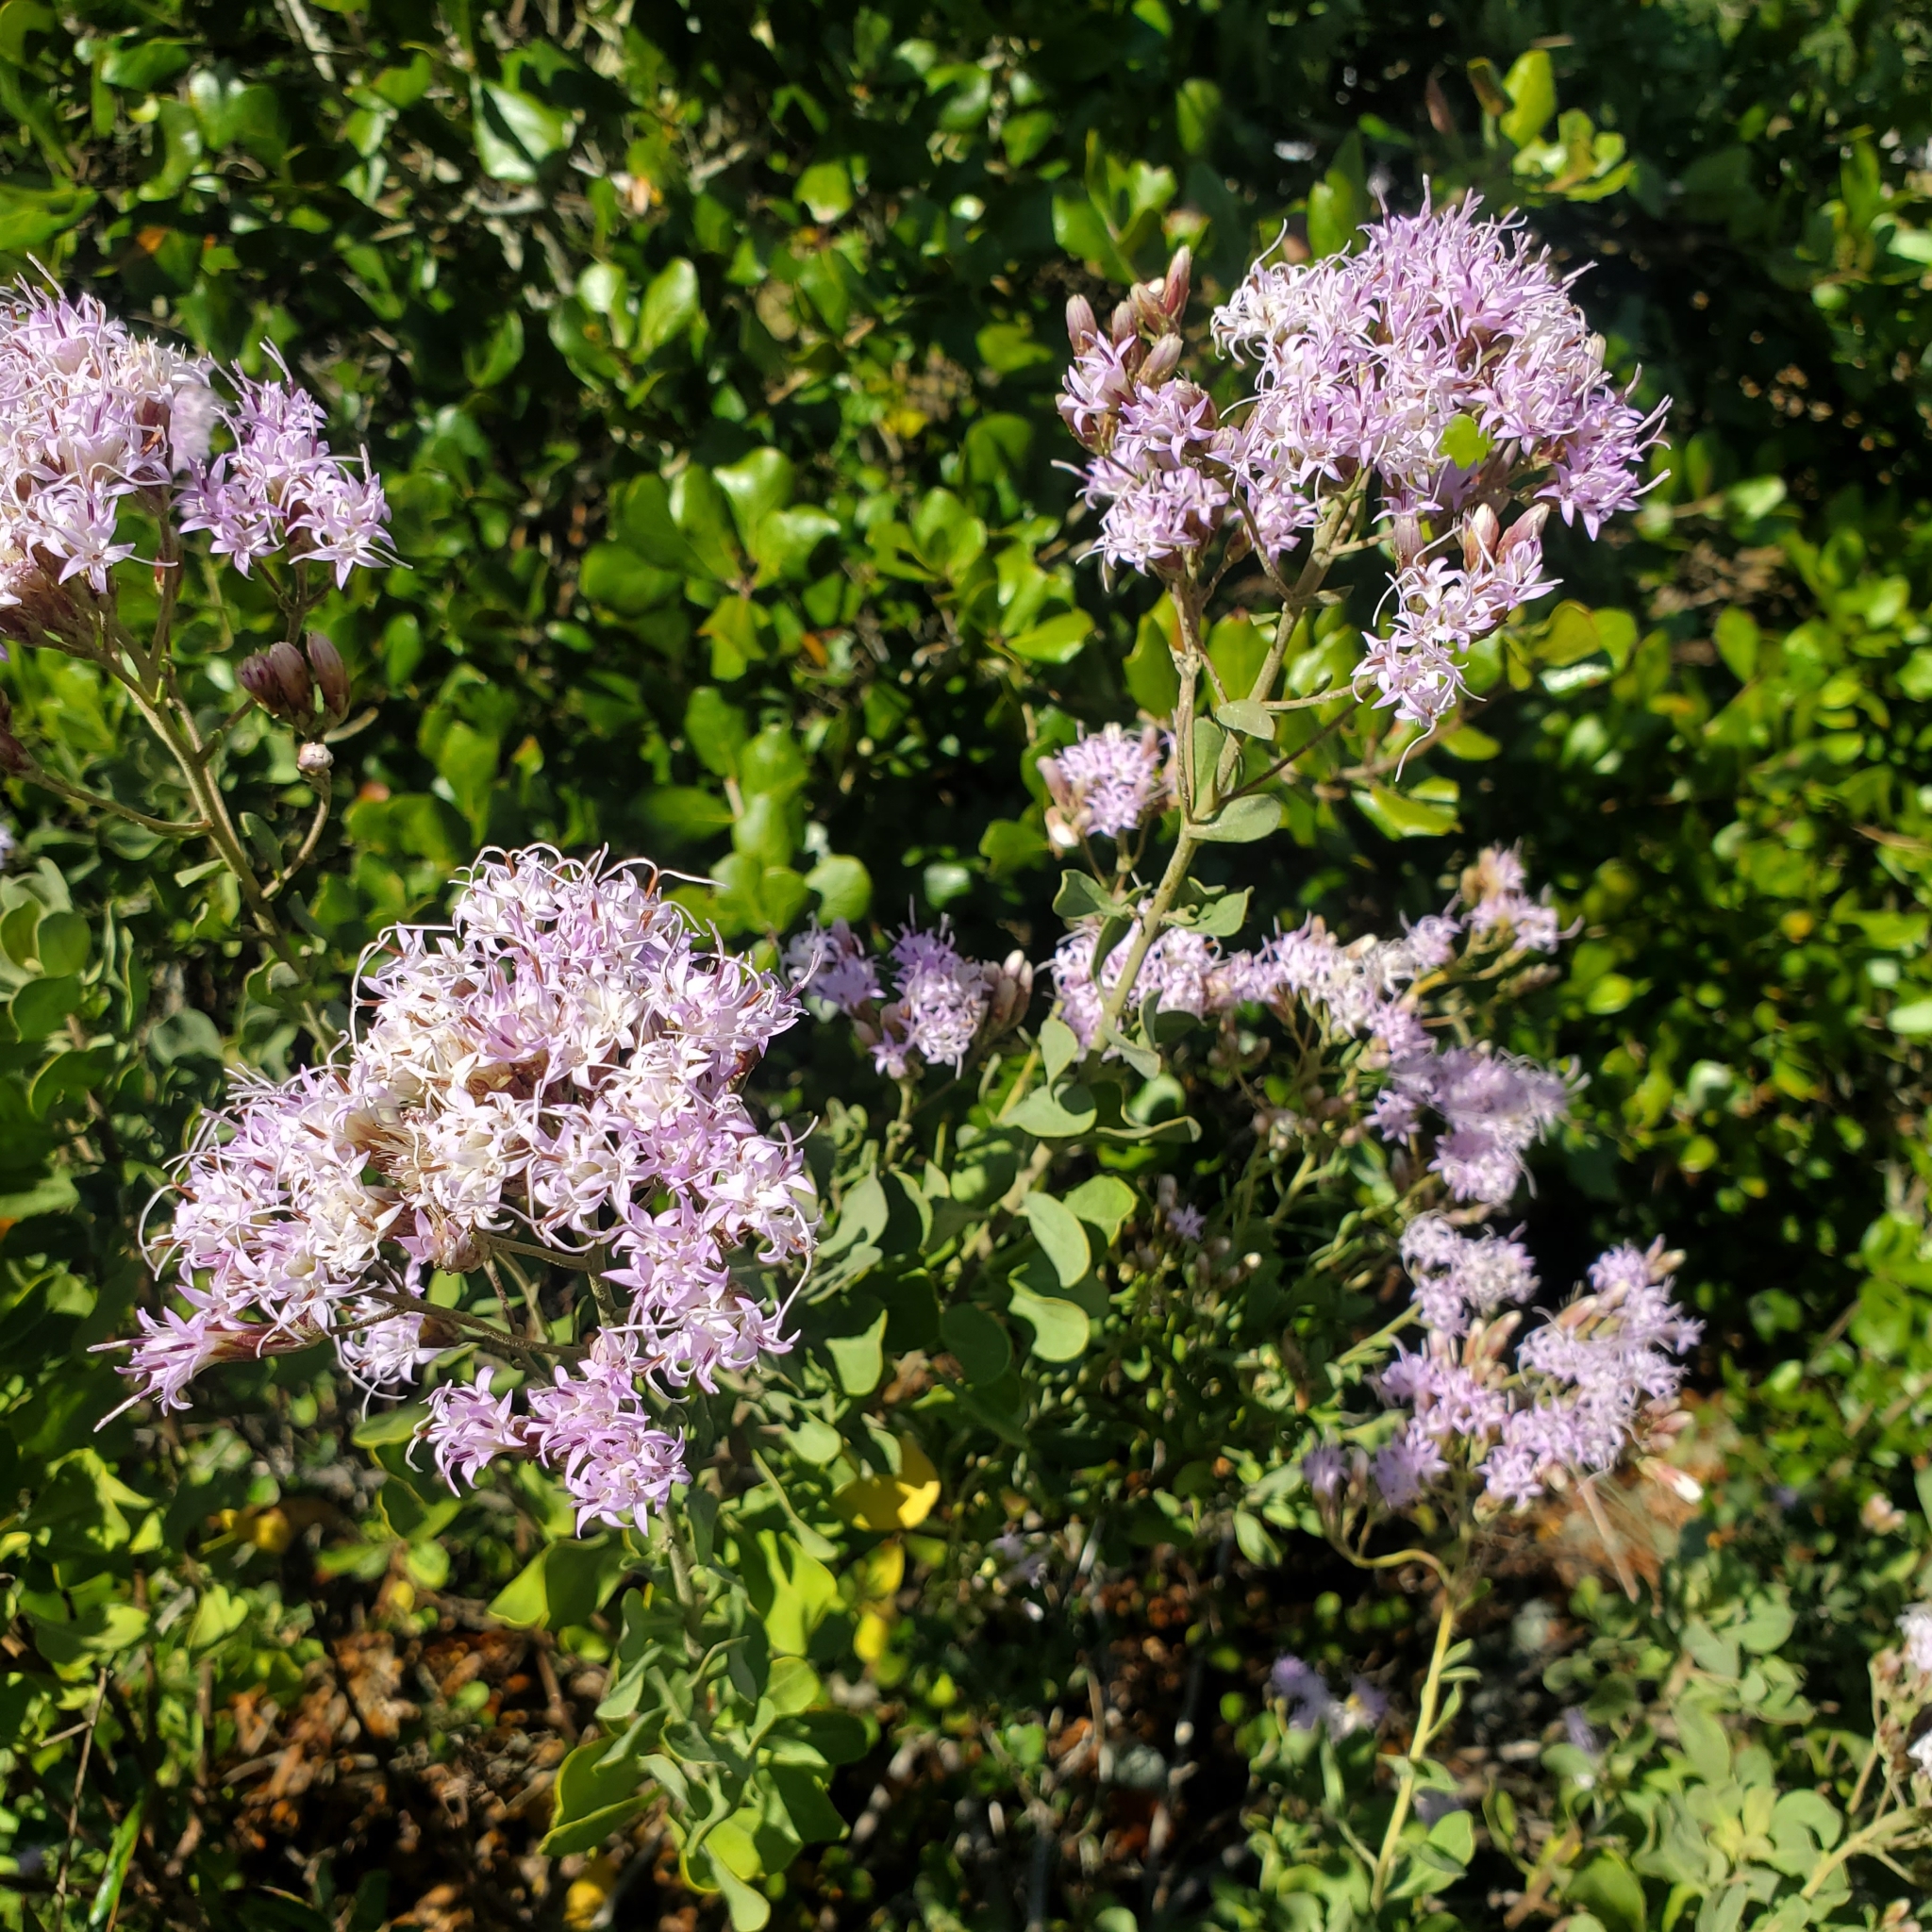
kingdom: Plantae
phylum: Tracheophyta
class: Magnoliopsida
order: Asterales
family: Asteraceae
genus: Garberia
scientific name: Garberia heterophylla
